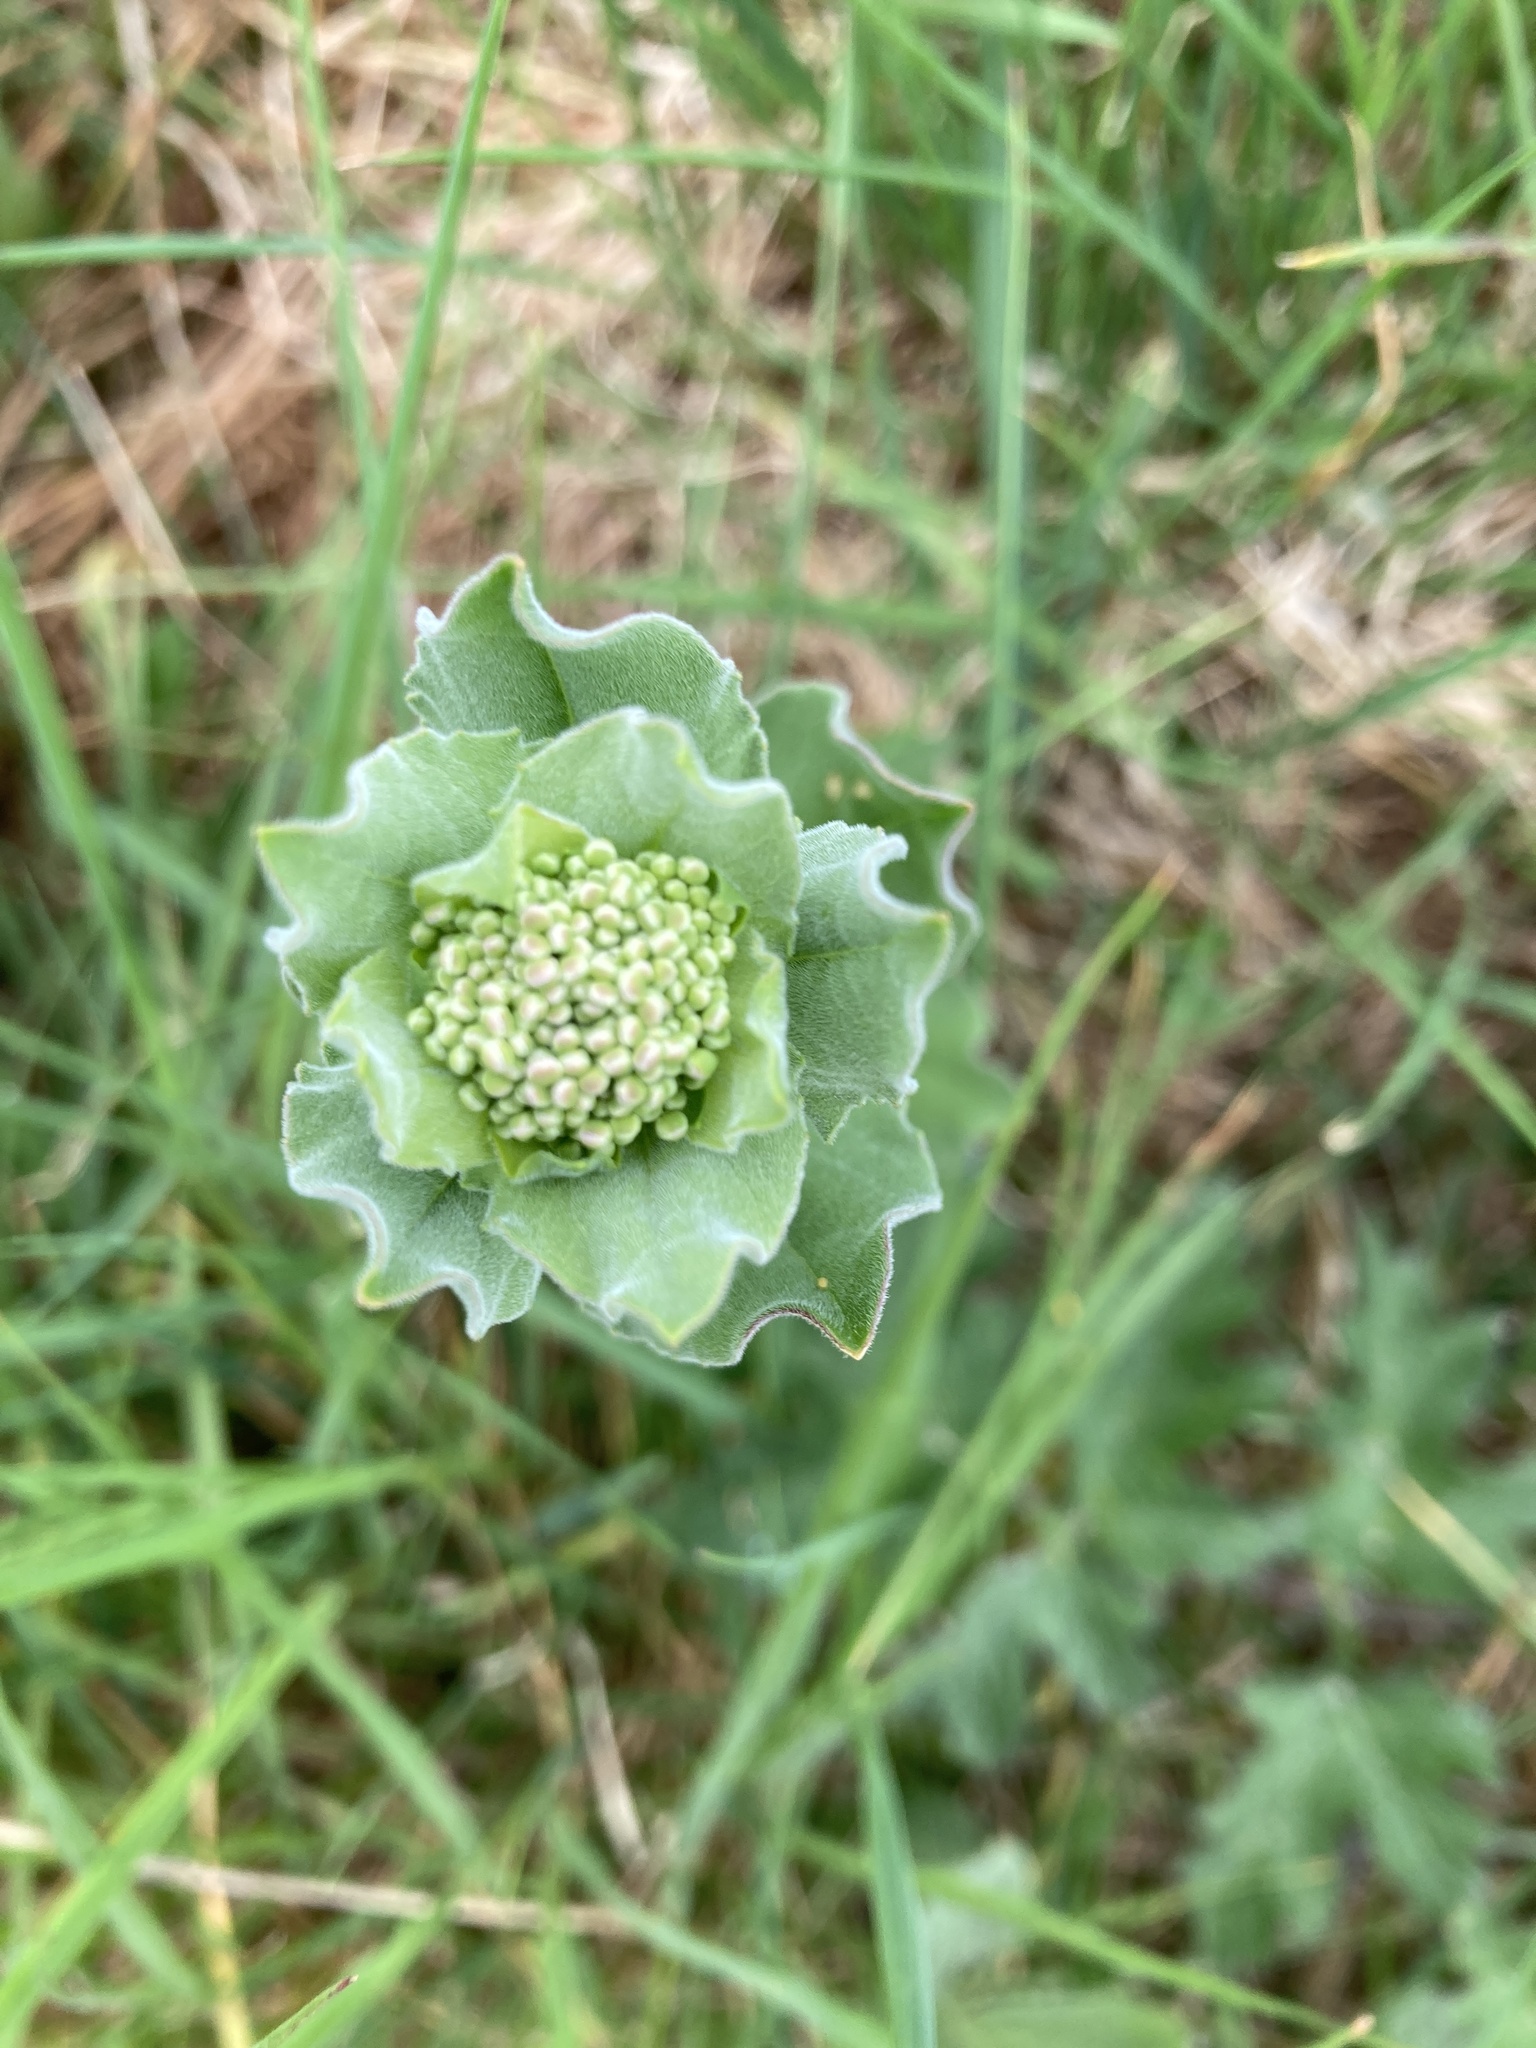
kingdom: Plantae
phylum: Tracheophyta
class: Magnoliopsida
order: Brassicales
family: Brassicaceae
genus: Lepidium
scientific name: Lepidium draba
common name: Hoary cress
